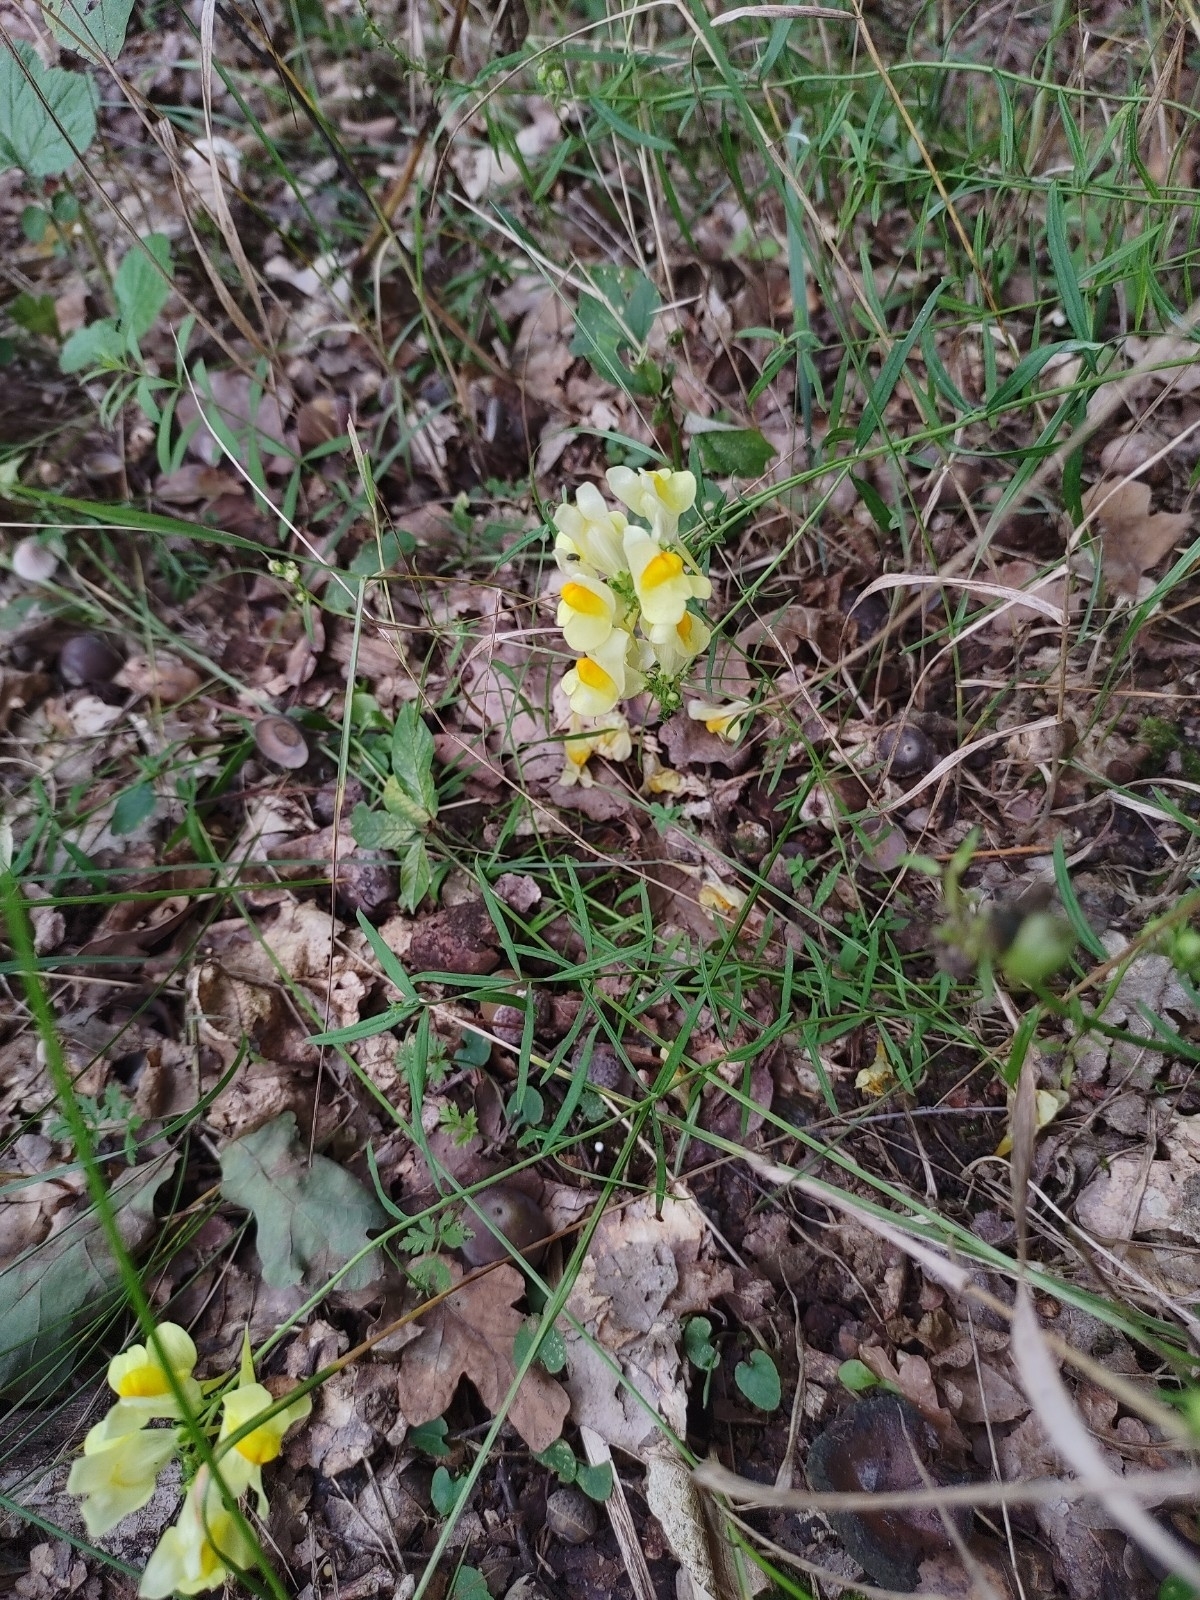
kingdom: Plantae
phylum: Tracheophyta
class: Magnoliopsida
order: Lamiales
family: Plantaginaceae
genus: Linaria
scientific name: Linaria vulgaris
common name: Butter and eggs
